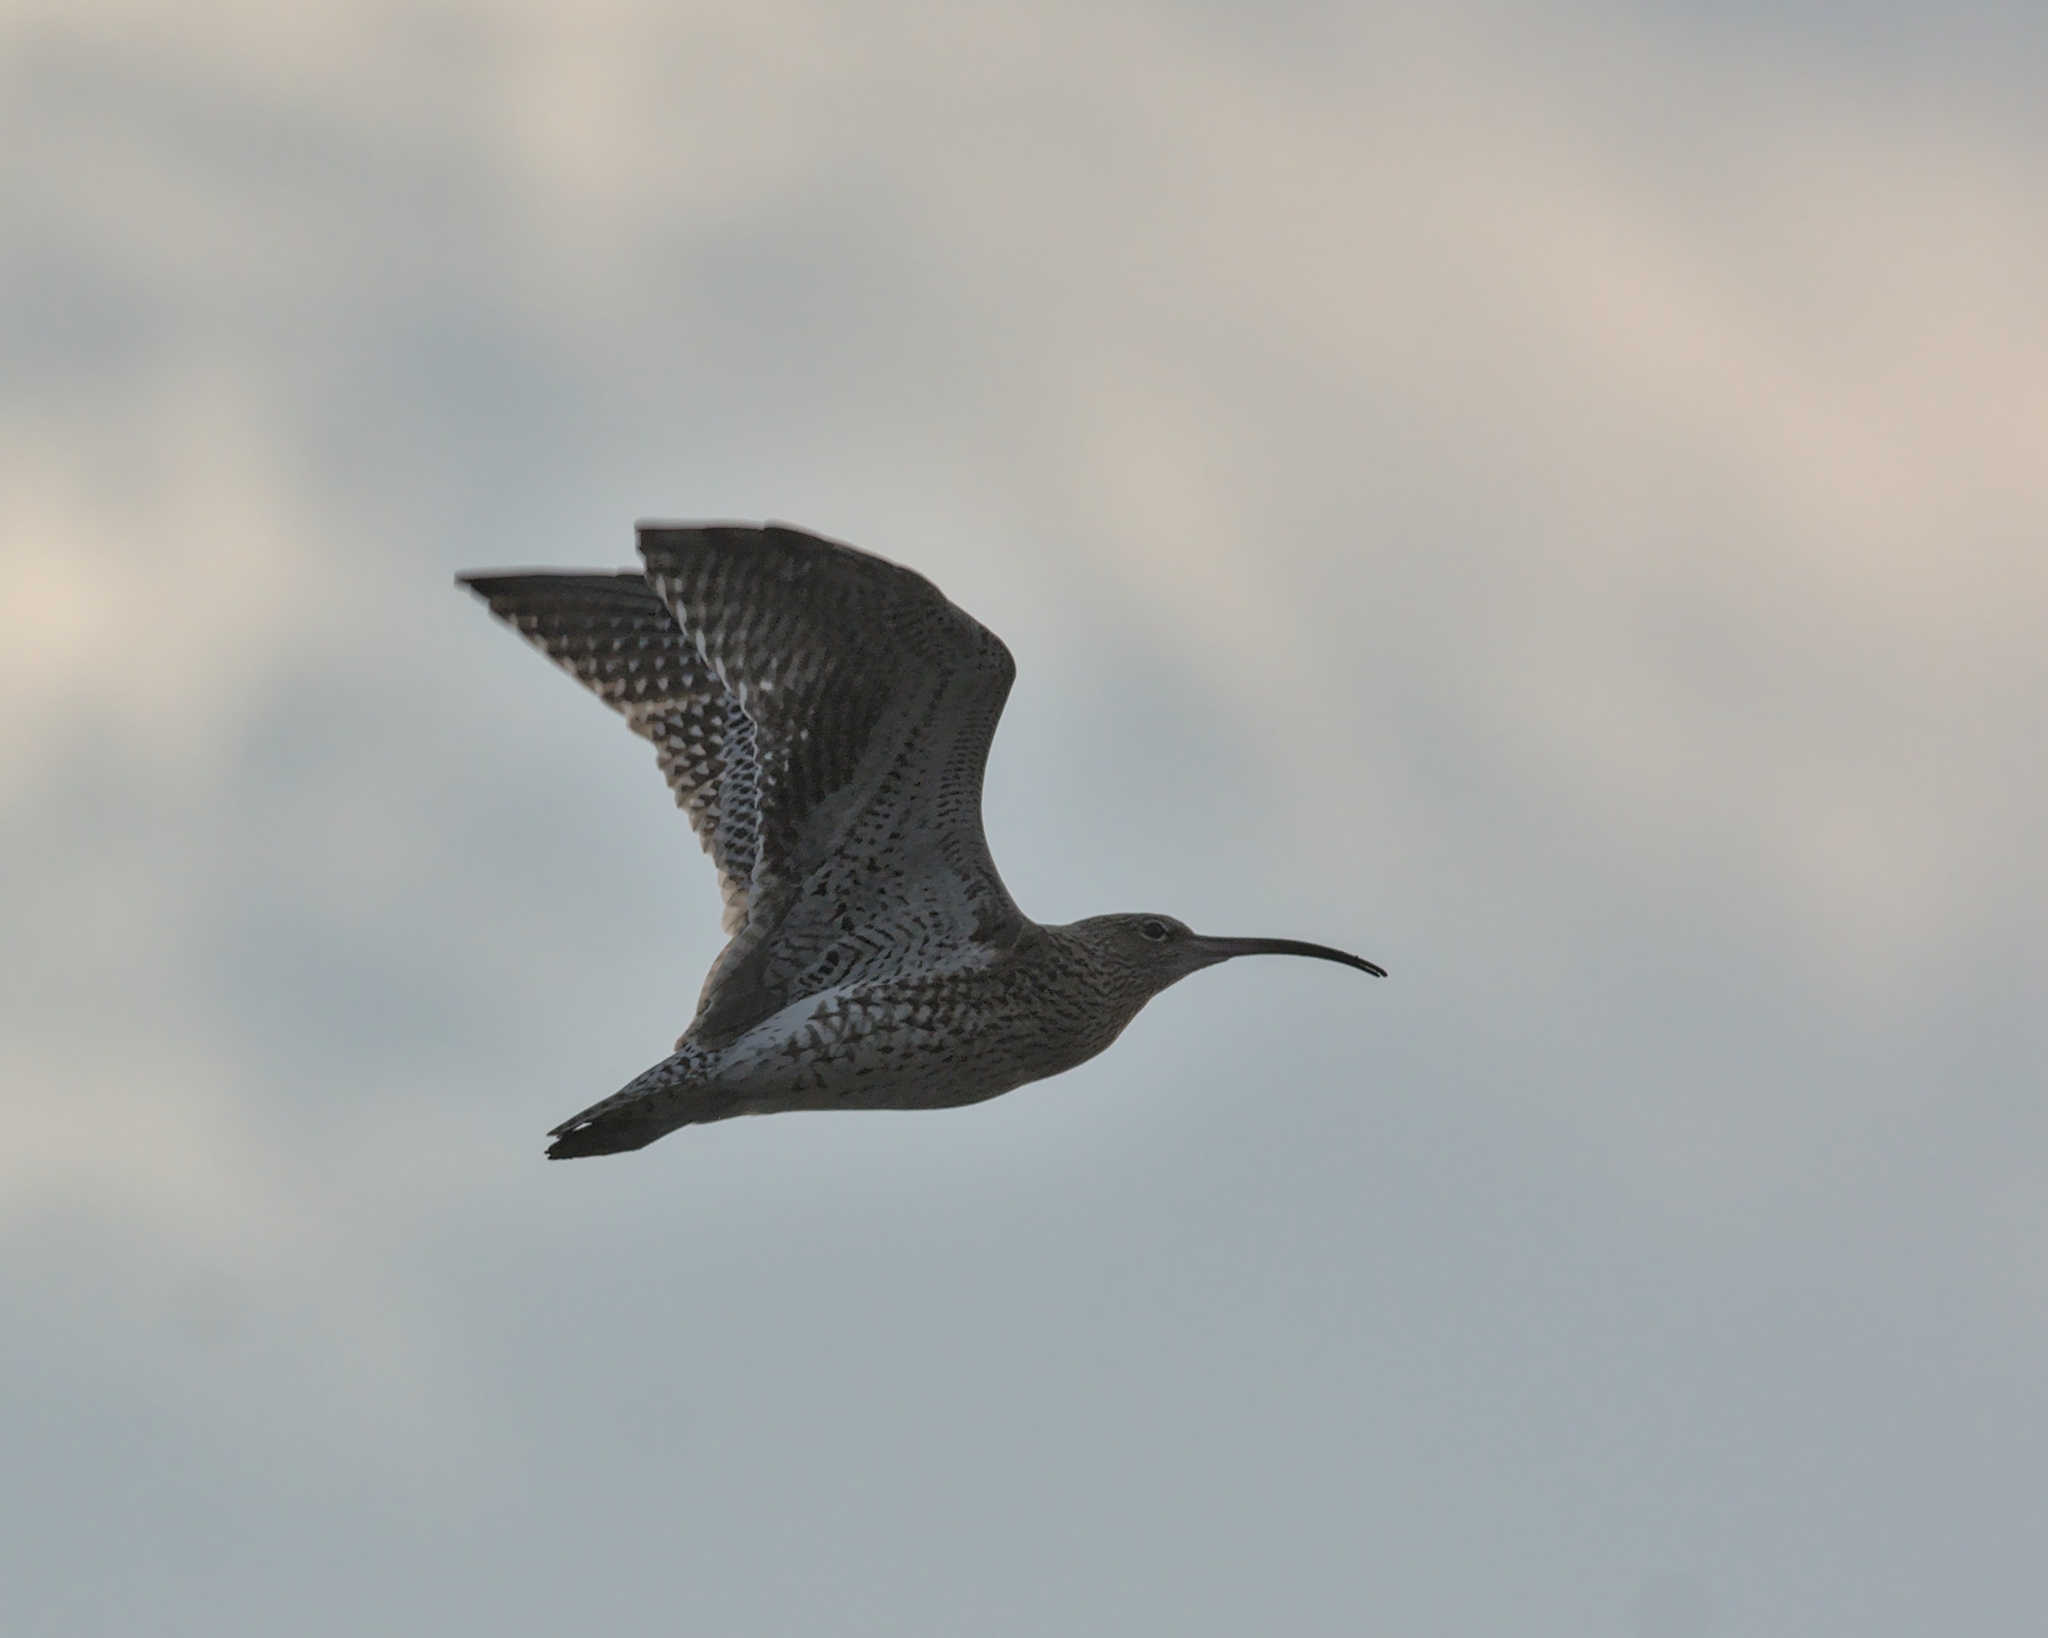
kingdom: Animalia
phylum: Chordata
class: Aves
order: Charadriiformes
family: Scolopacidae
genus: Numenius
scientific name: Numenius arquata
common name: Eurasian curlew
